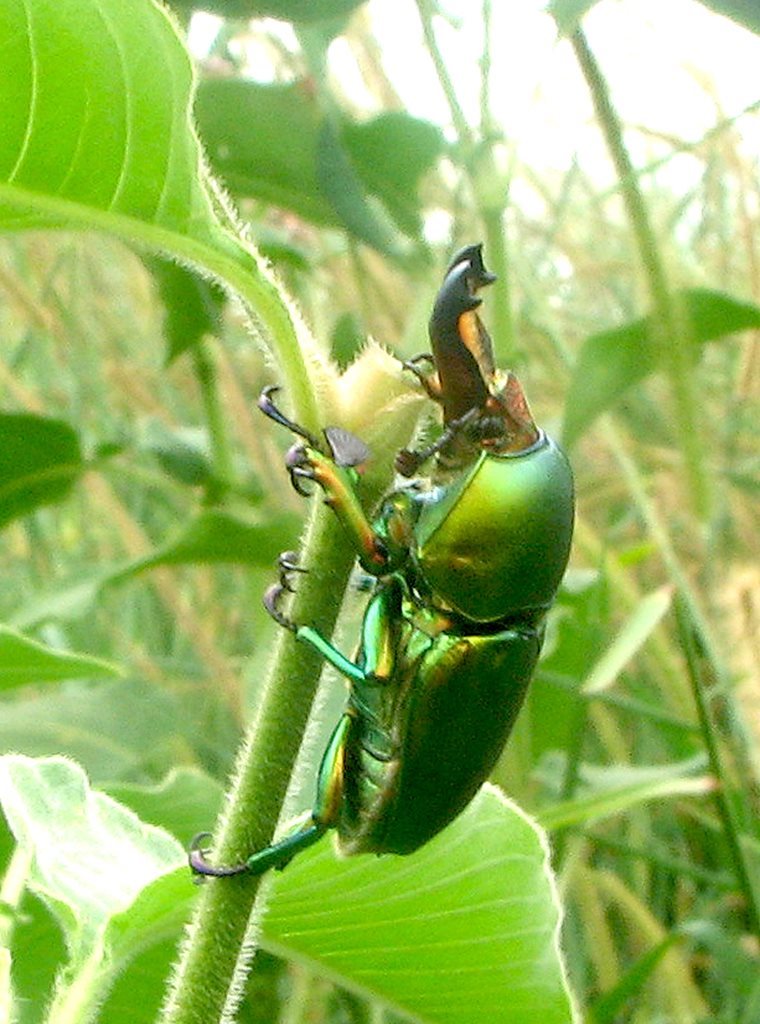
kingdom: Animalia
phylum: Arthropoda
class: Insecta
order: Coleoptera
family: Lucanidae
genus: Lamprima
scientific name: Lamprima aurata
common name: Golden stag beetle
